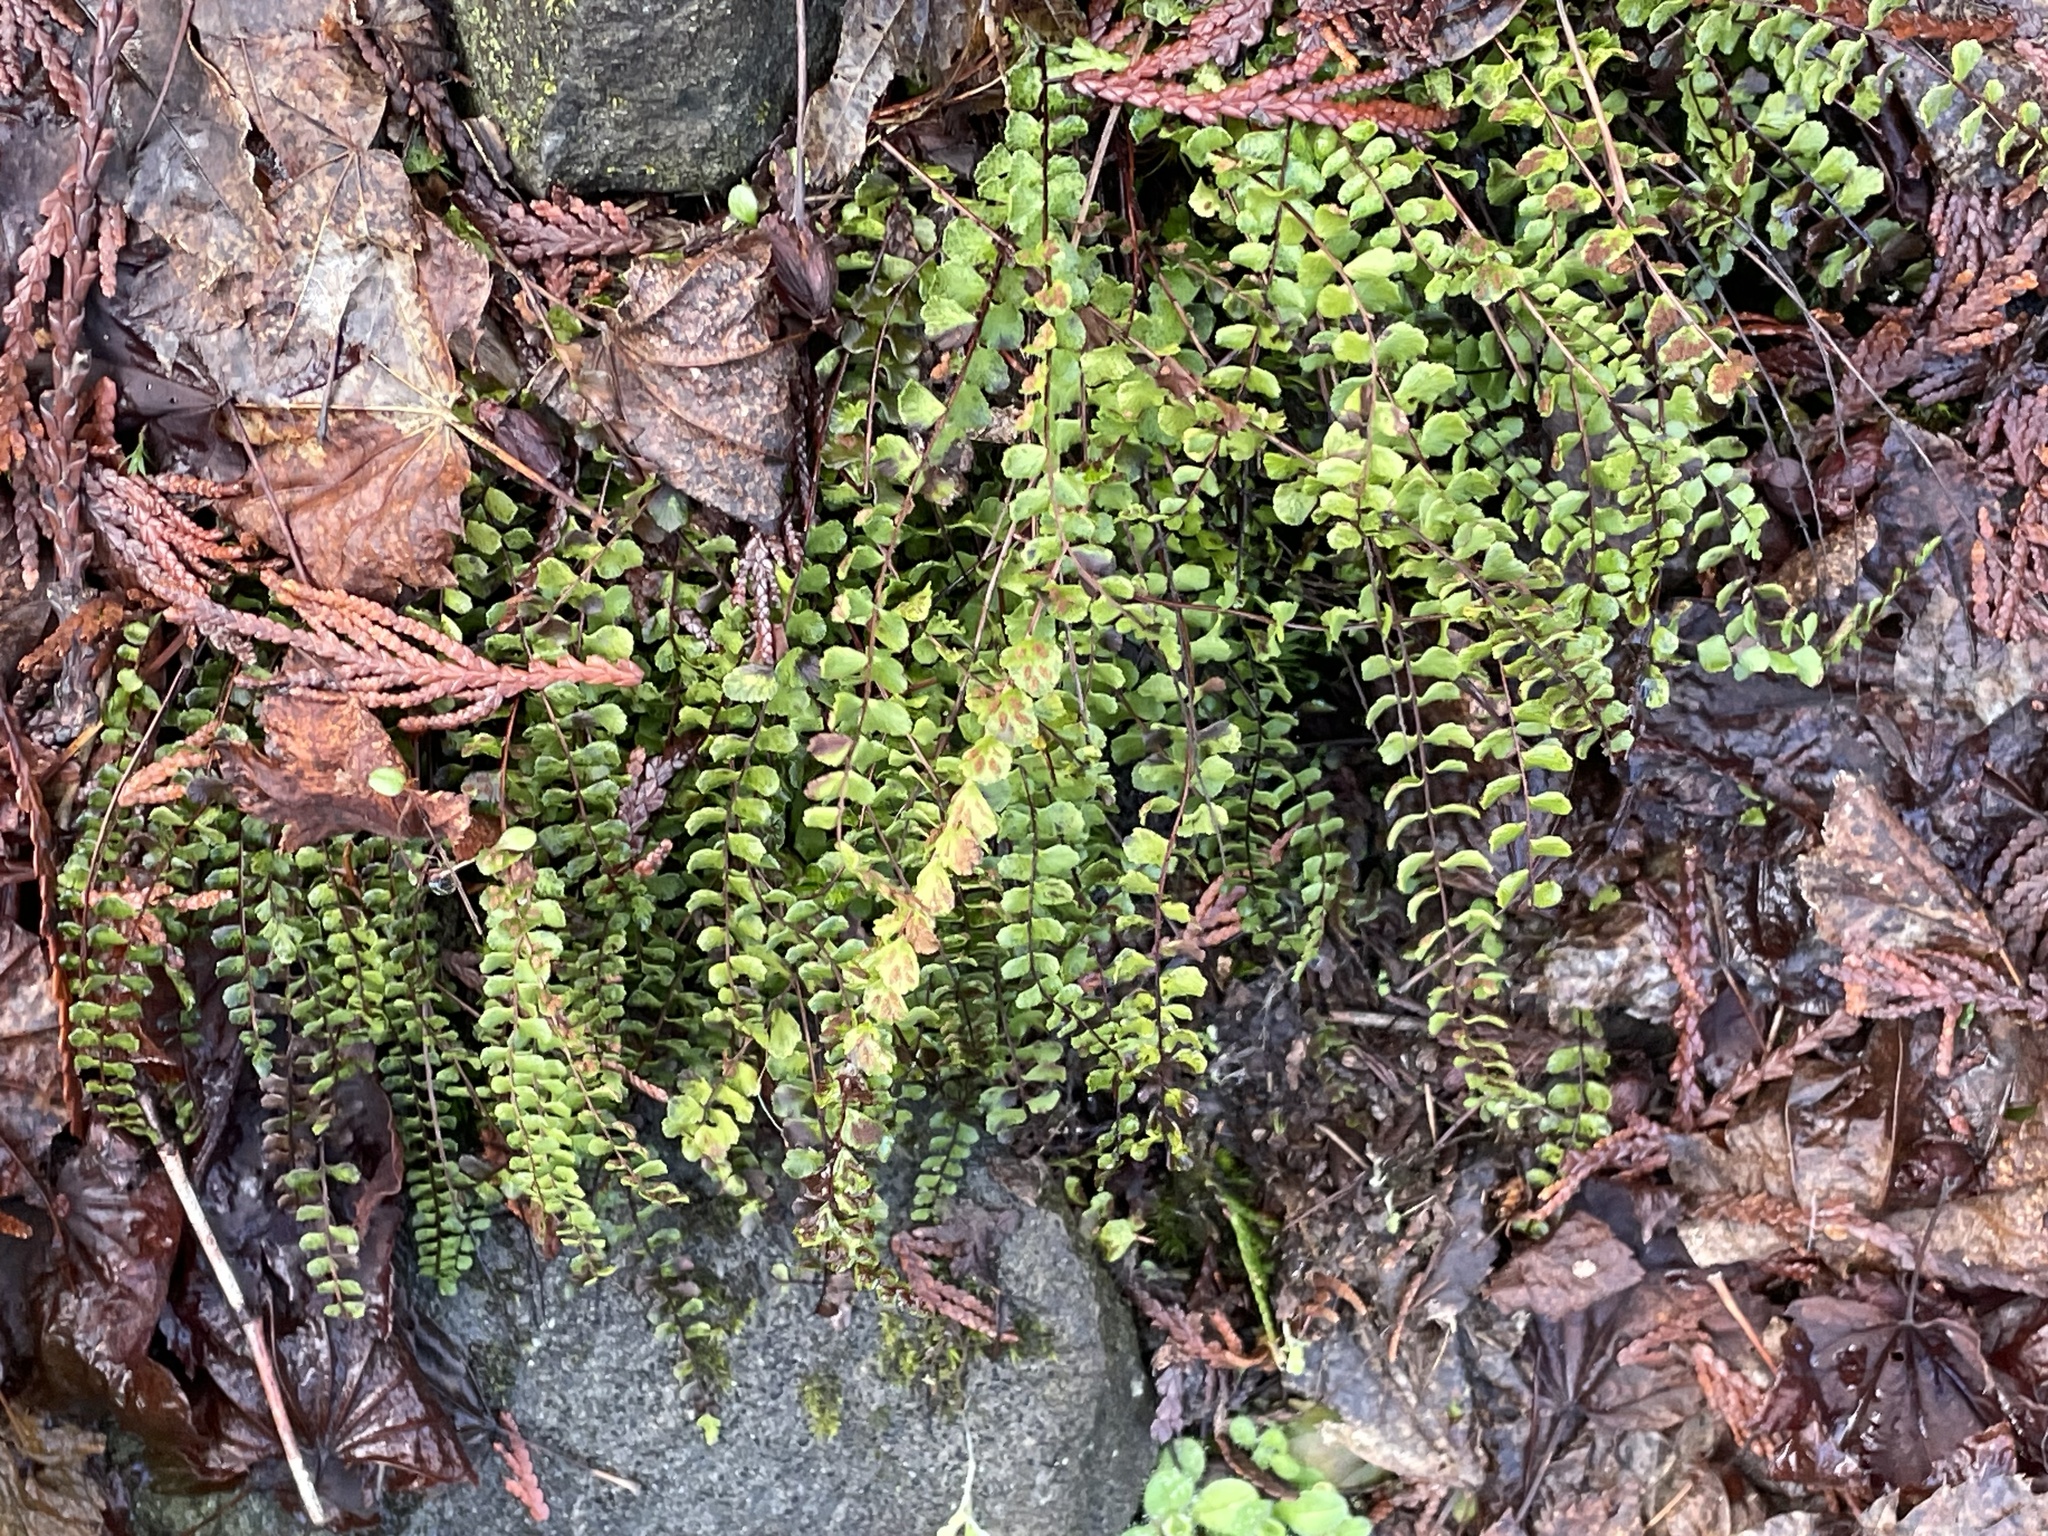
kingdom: Plantae
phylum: Tracheophyta
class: Polypodiopsida
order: Polypodiales
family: Aspleniaceae
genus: Asplenium
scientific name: Asplenium trichomanes
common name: Maidenhair spleenwort
